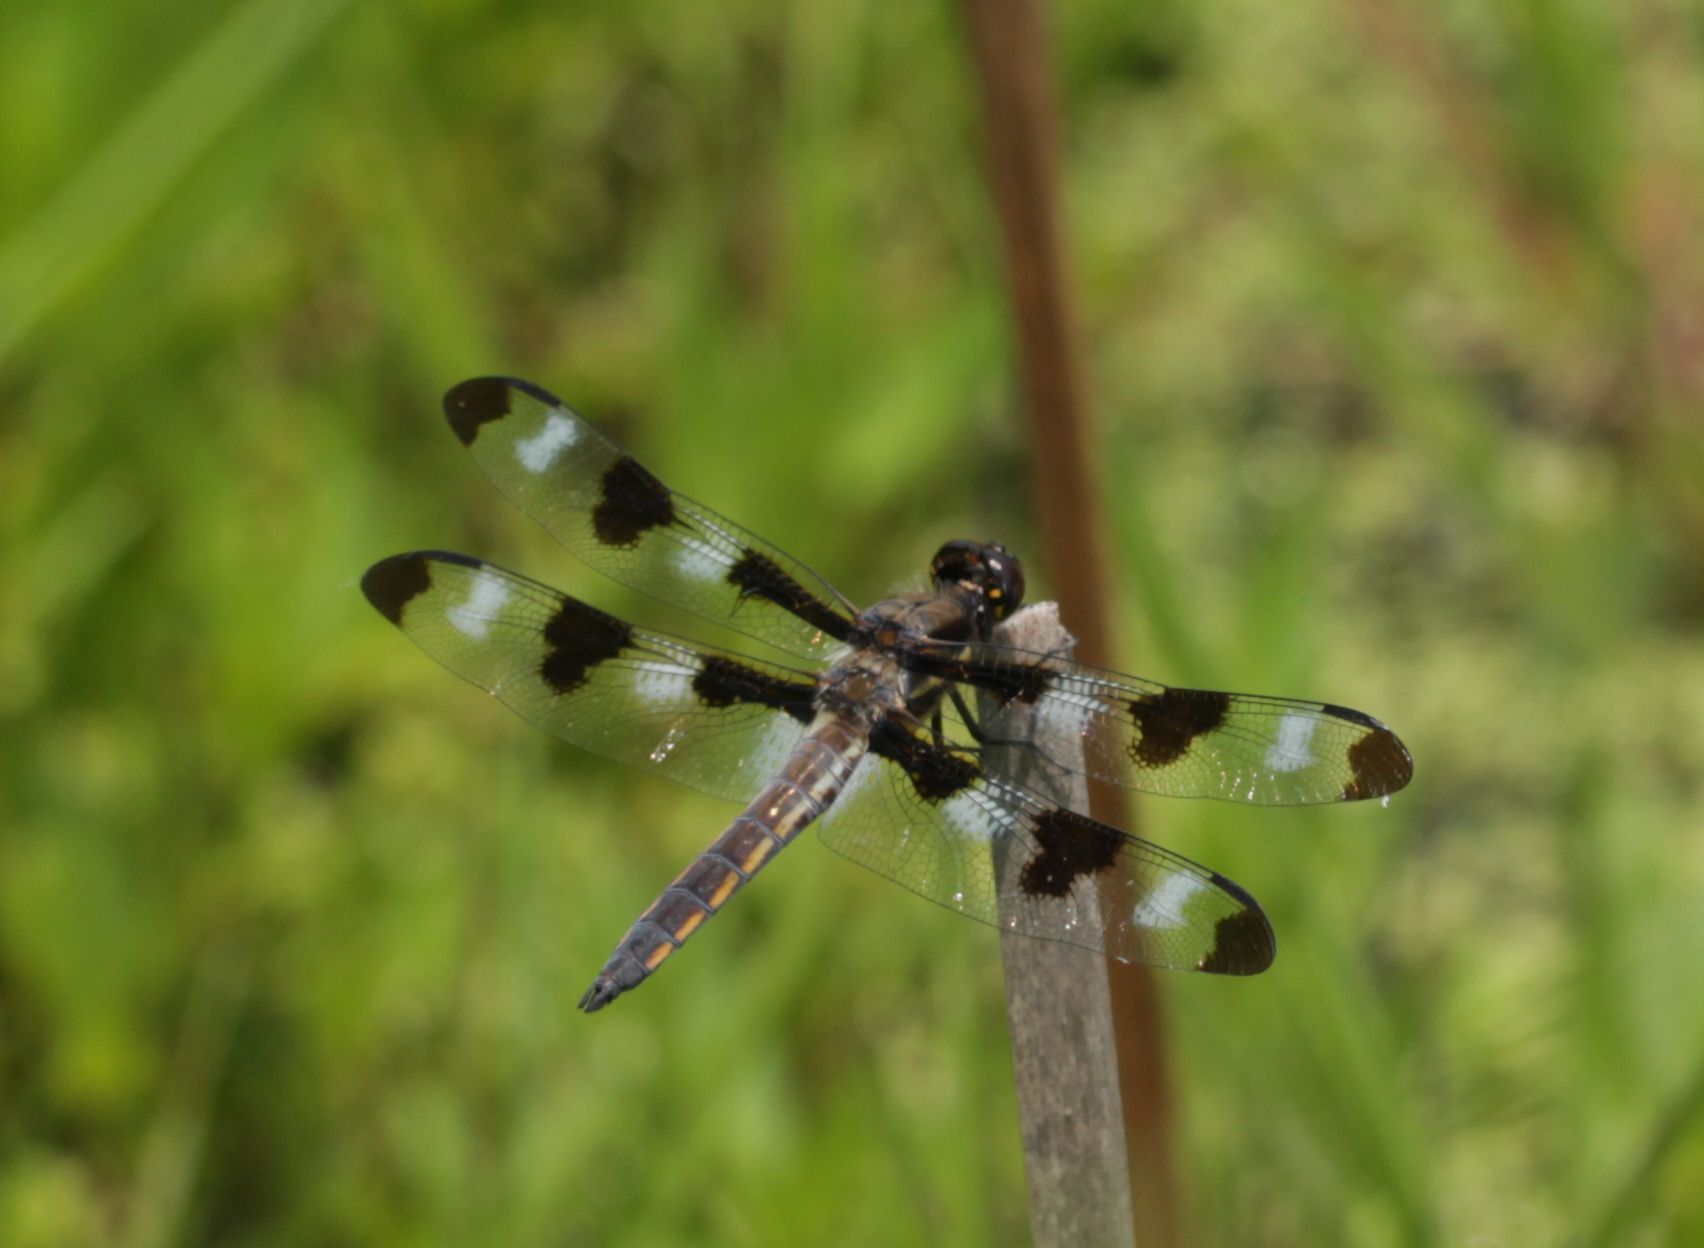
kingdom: Animalia
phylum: Arthropoda
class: Insecta
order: Odonata
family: Libellulidae
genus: Libellula
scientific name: Libellula pulchella
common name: Twelve-spotted skimmer
